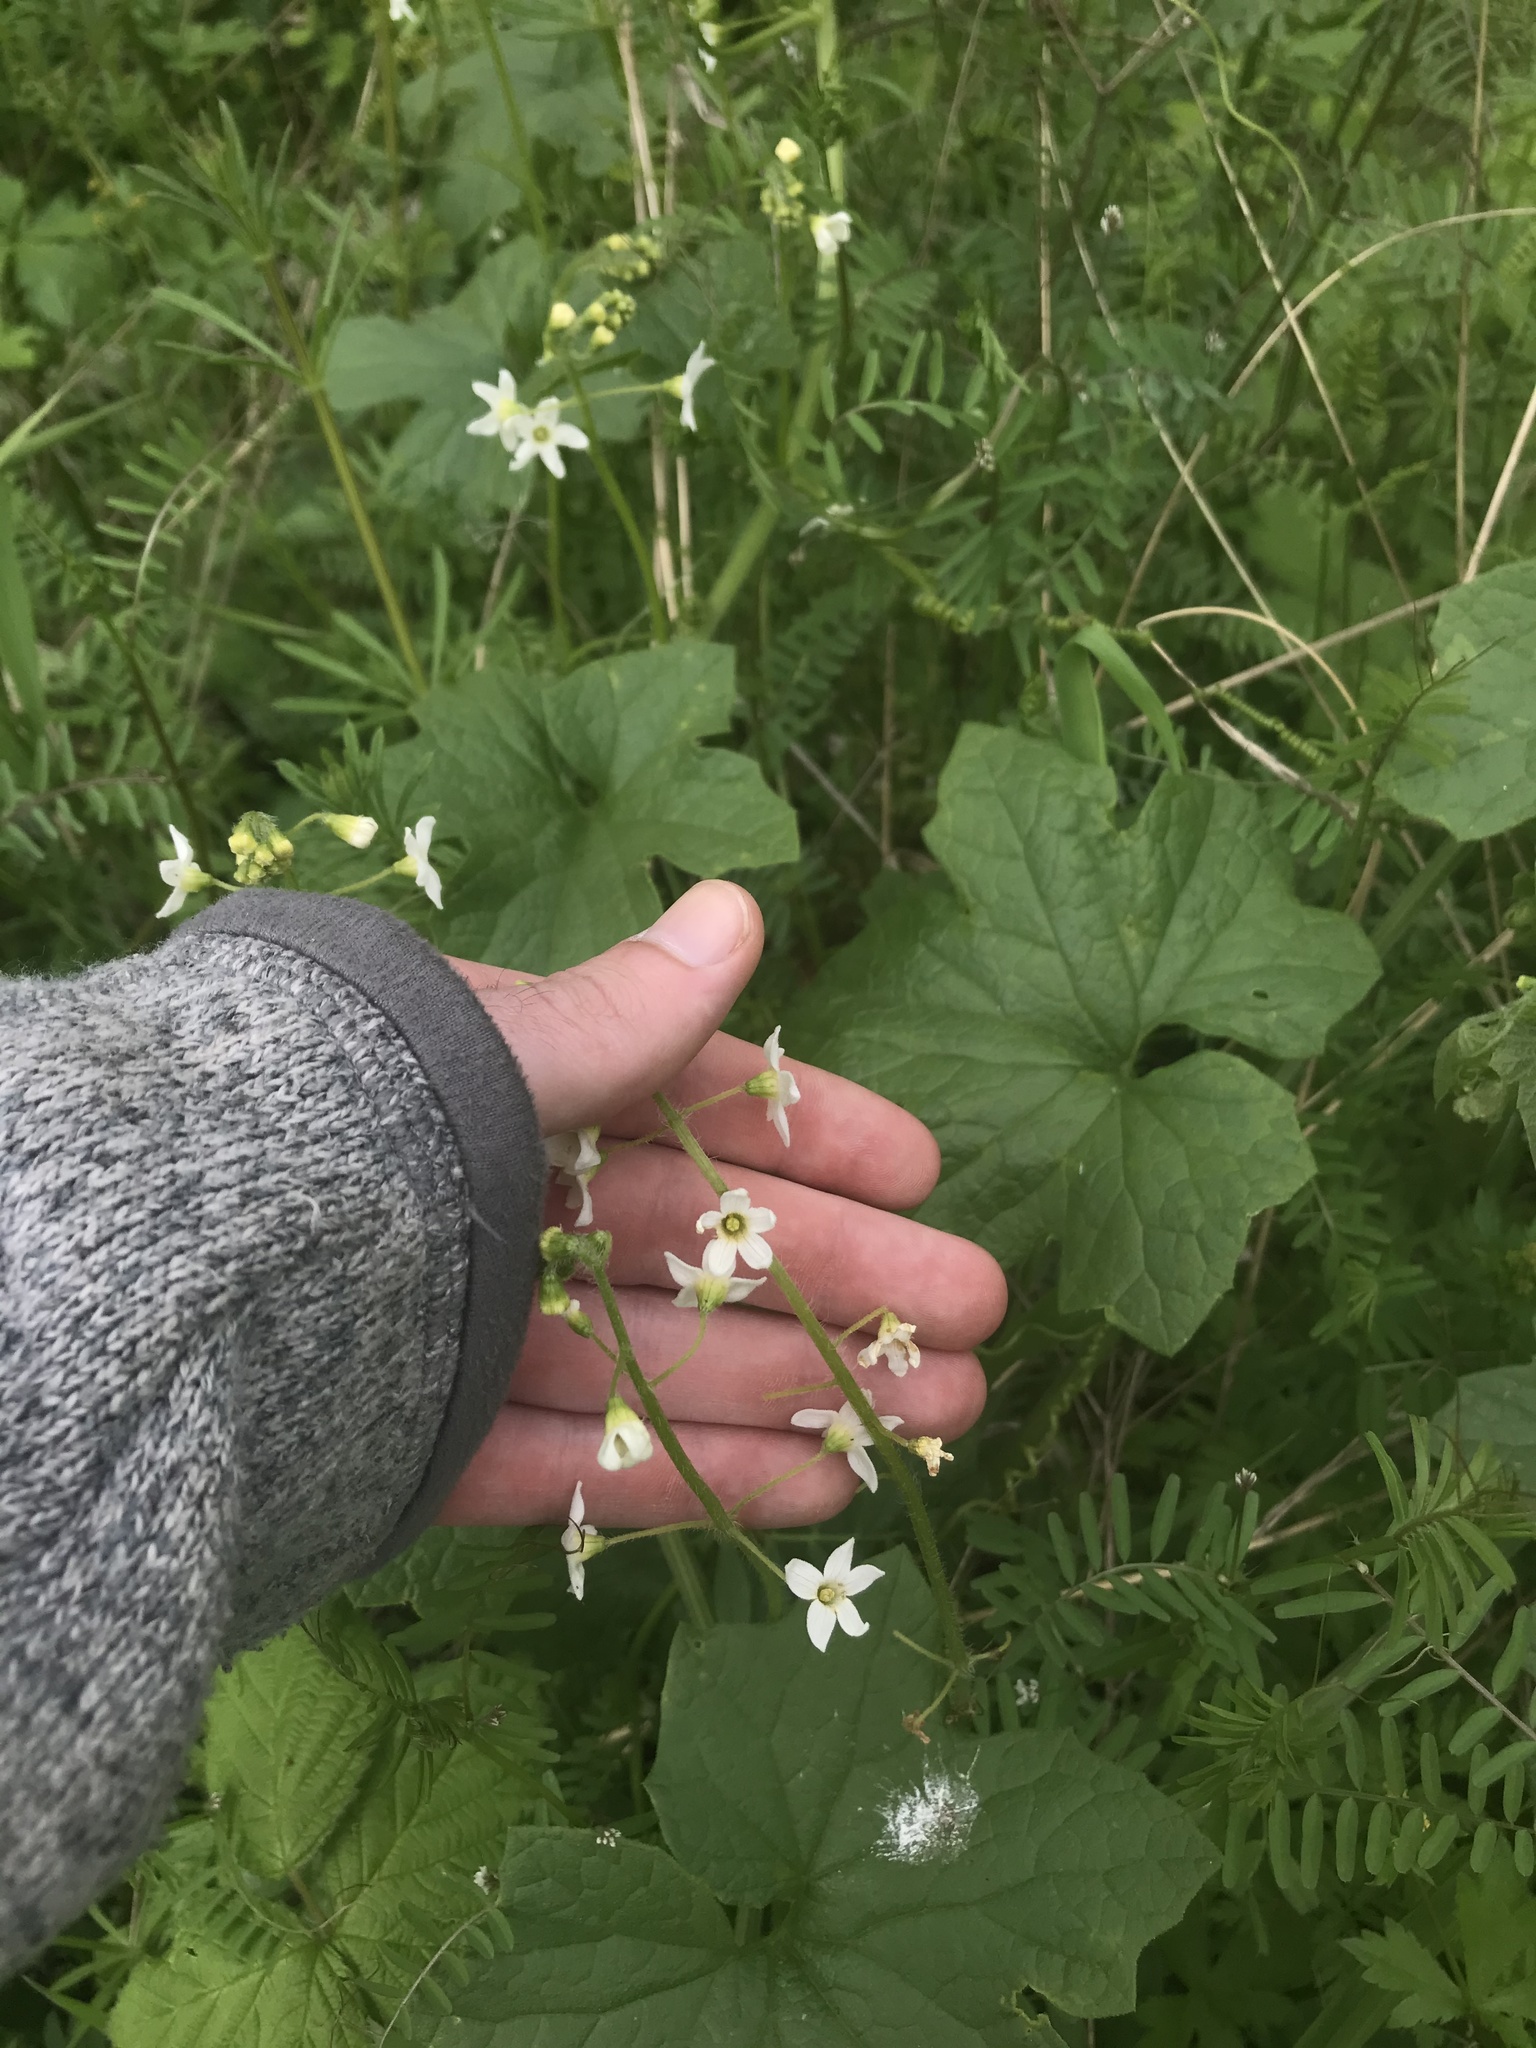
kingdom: Plantae
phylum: Tracheophyta
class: Magnoliopsida
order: Cucurbitales
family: Cucurbitaceae
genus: Marah
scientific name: Marah oregana
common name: Coastal manroot
